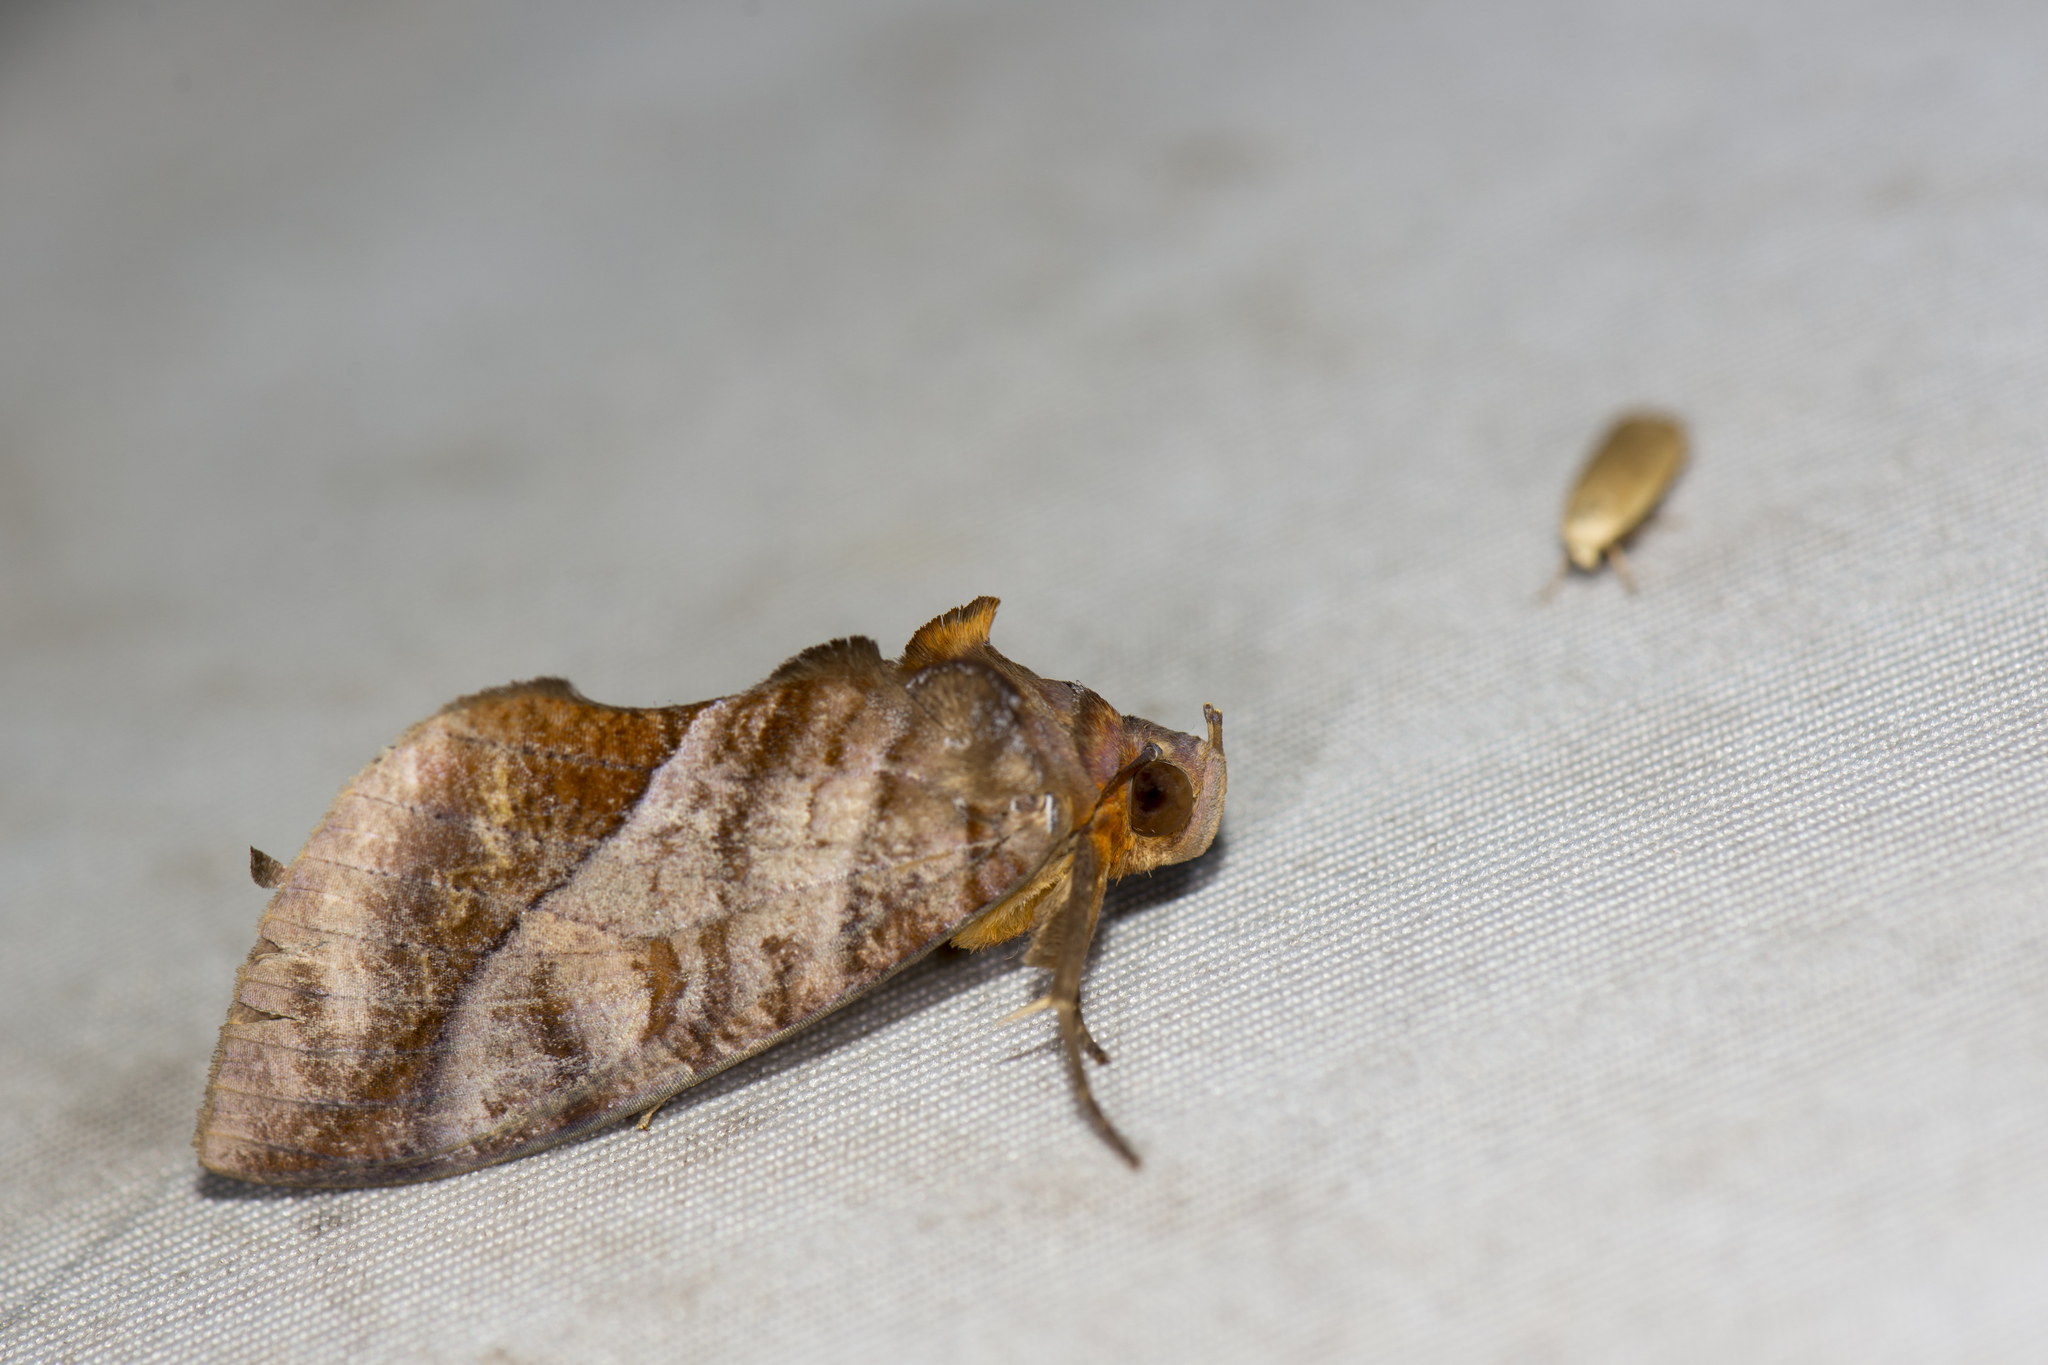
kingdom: Animalia
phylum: Arthropoda
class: Insecta
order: Lepidoptera
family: Erebidae
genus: Eudocima
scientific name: Eudocima homaena
